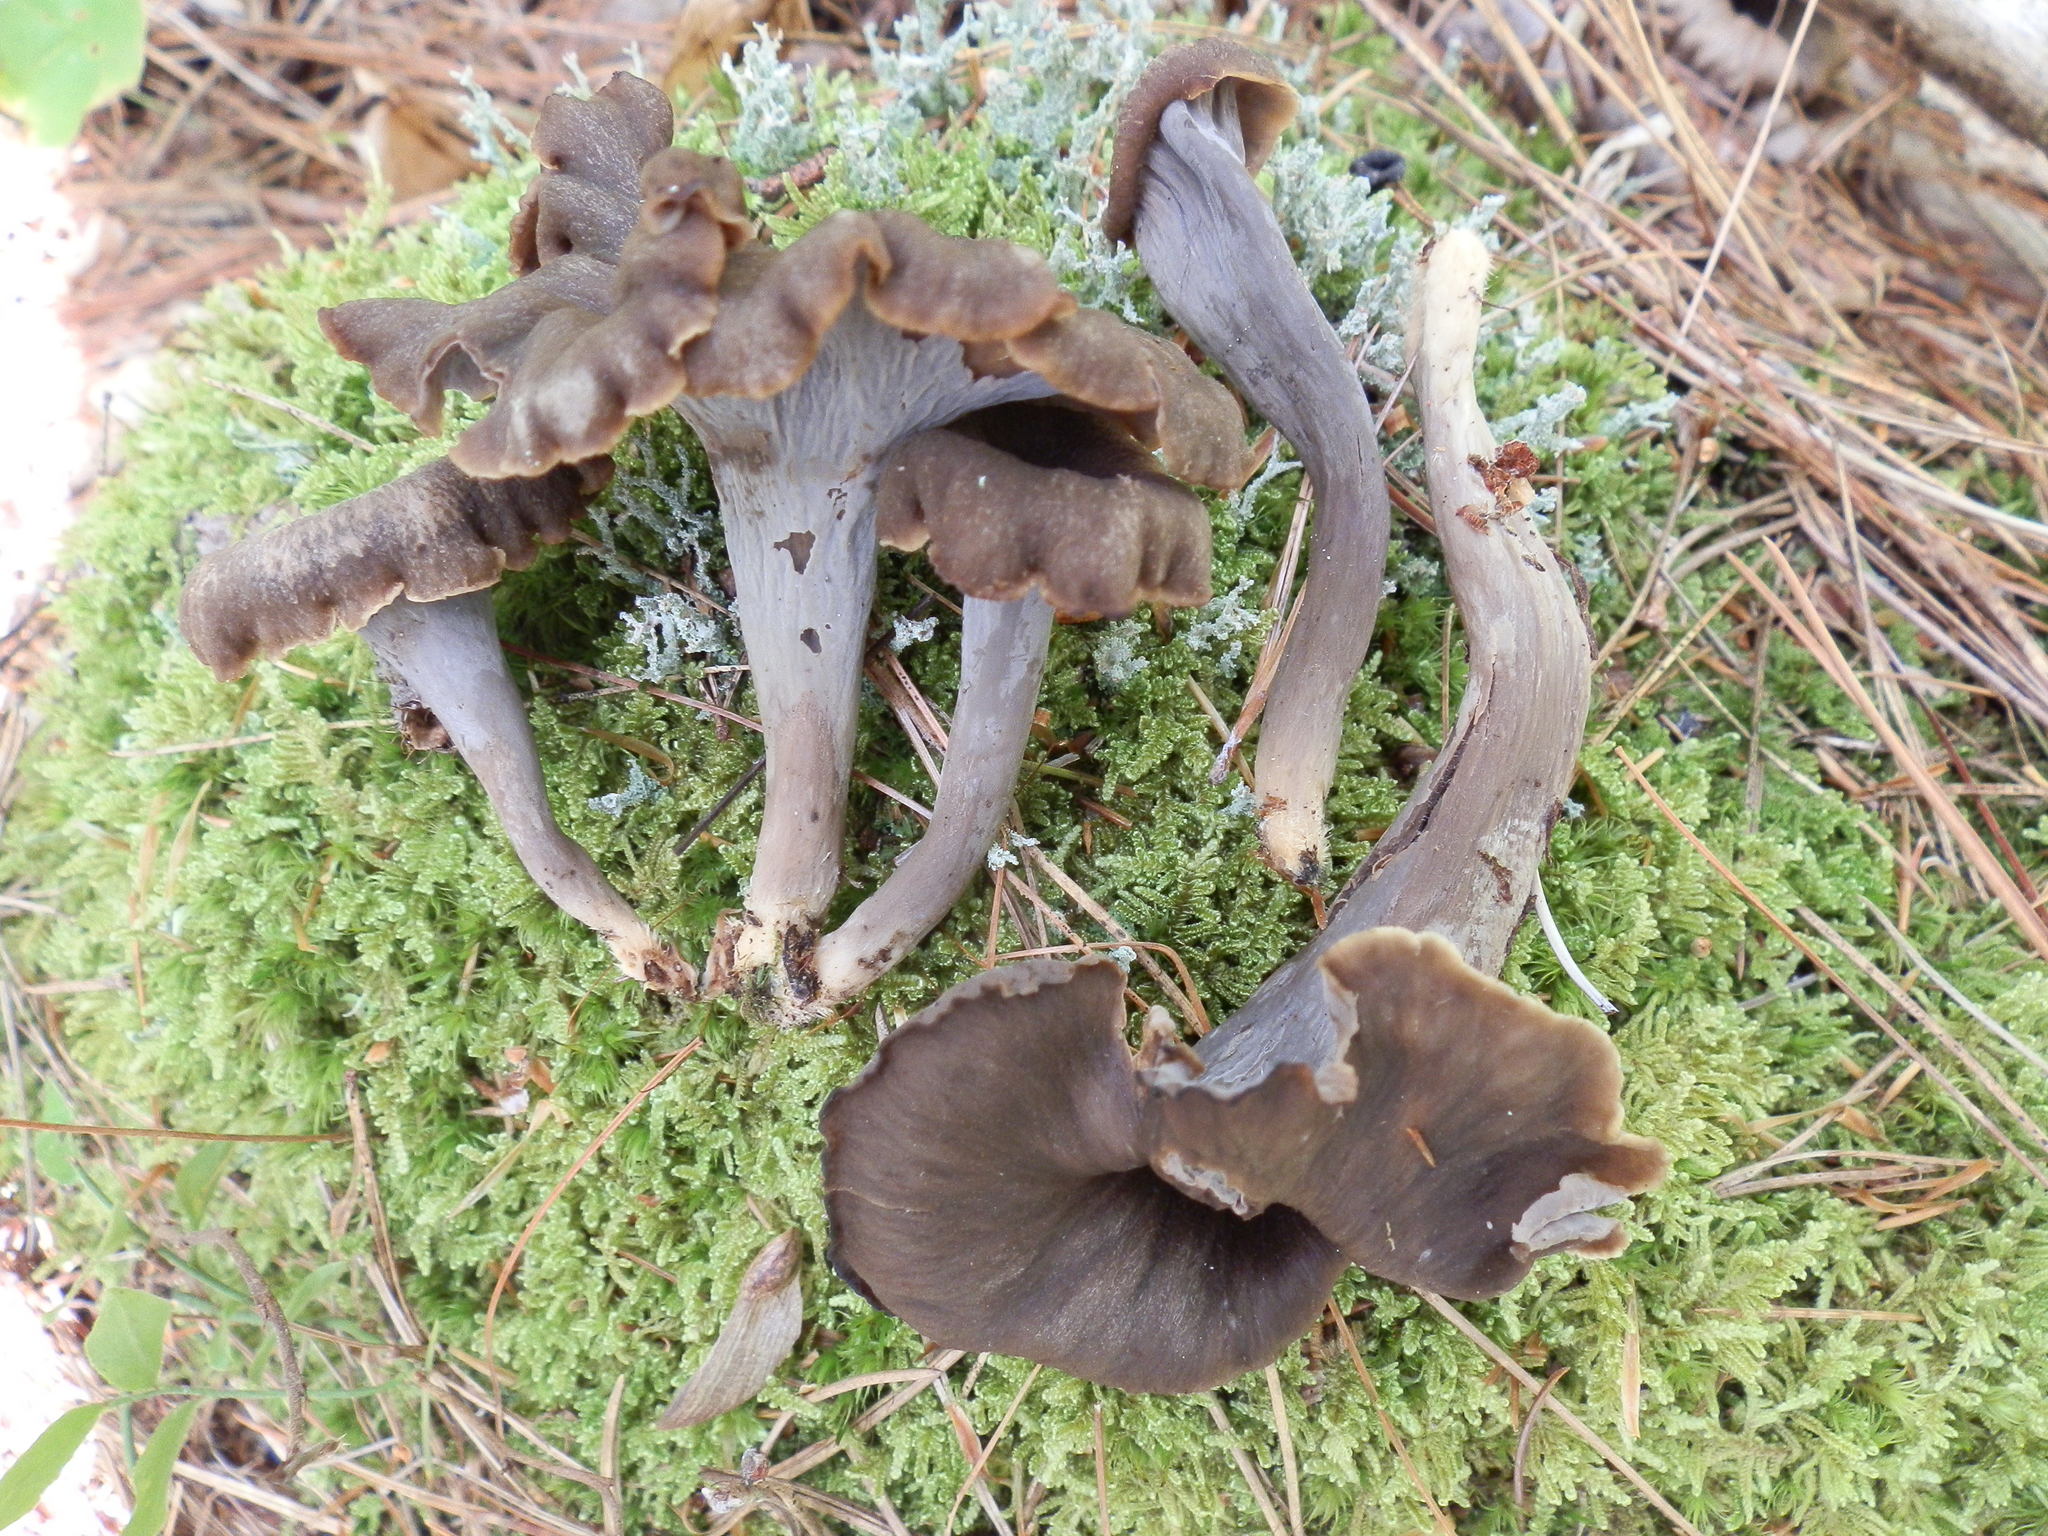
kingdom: Fungi
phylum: Basidiomycota
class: Agaricomycetes
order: Cantharellales
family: Hydnaceae
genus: Craterellus
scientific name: Craterellus caeruleofuscus
